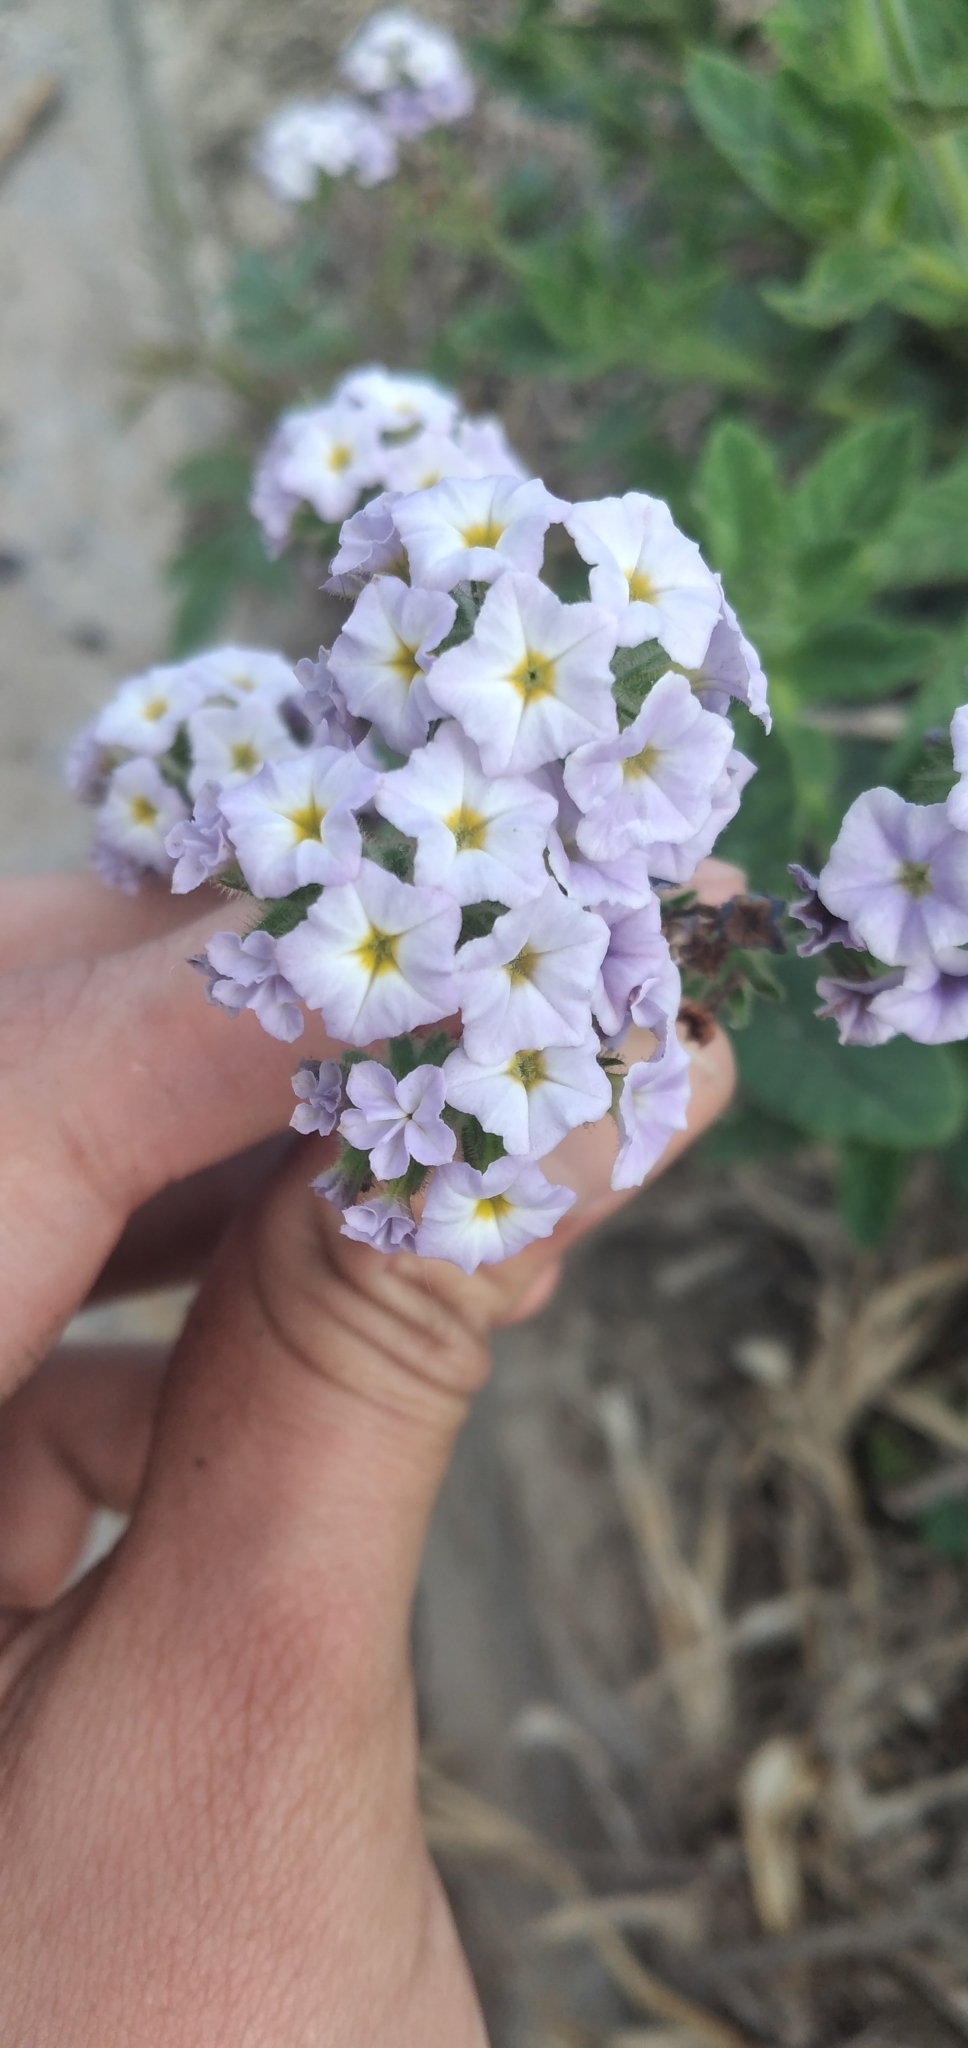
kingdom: Plantae
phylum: Tracheophyta
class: Magnoliopsida
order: Boraginales
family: Heliotropiaceae
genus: Heliotropium
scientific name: Heliotropium amplexicaule
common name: Clasping heliotrope
